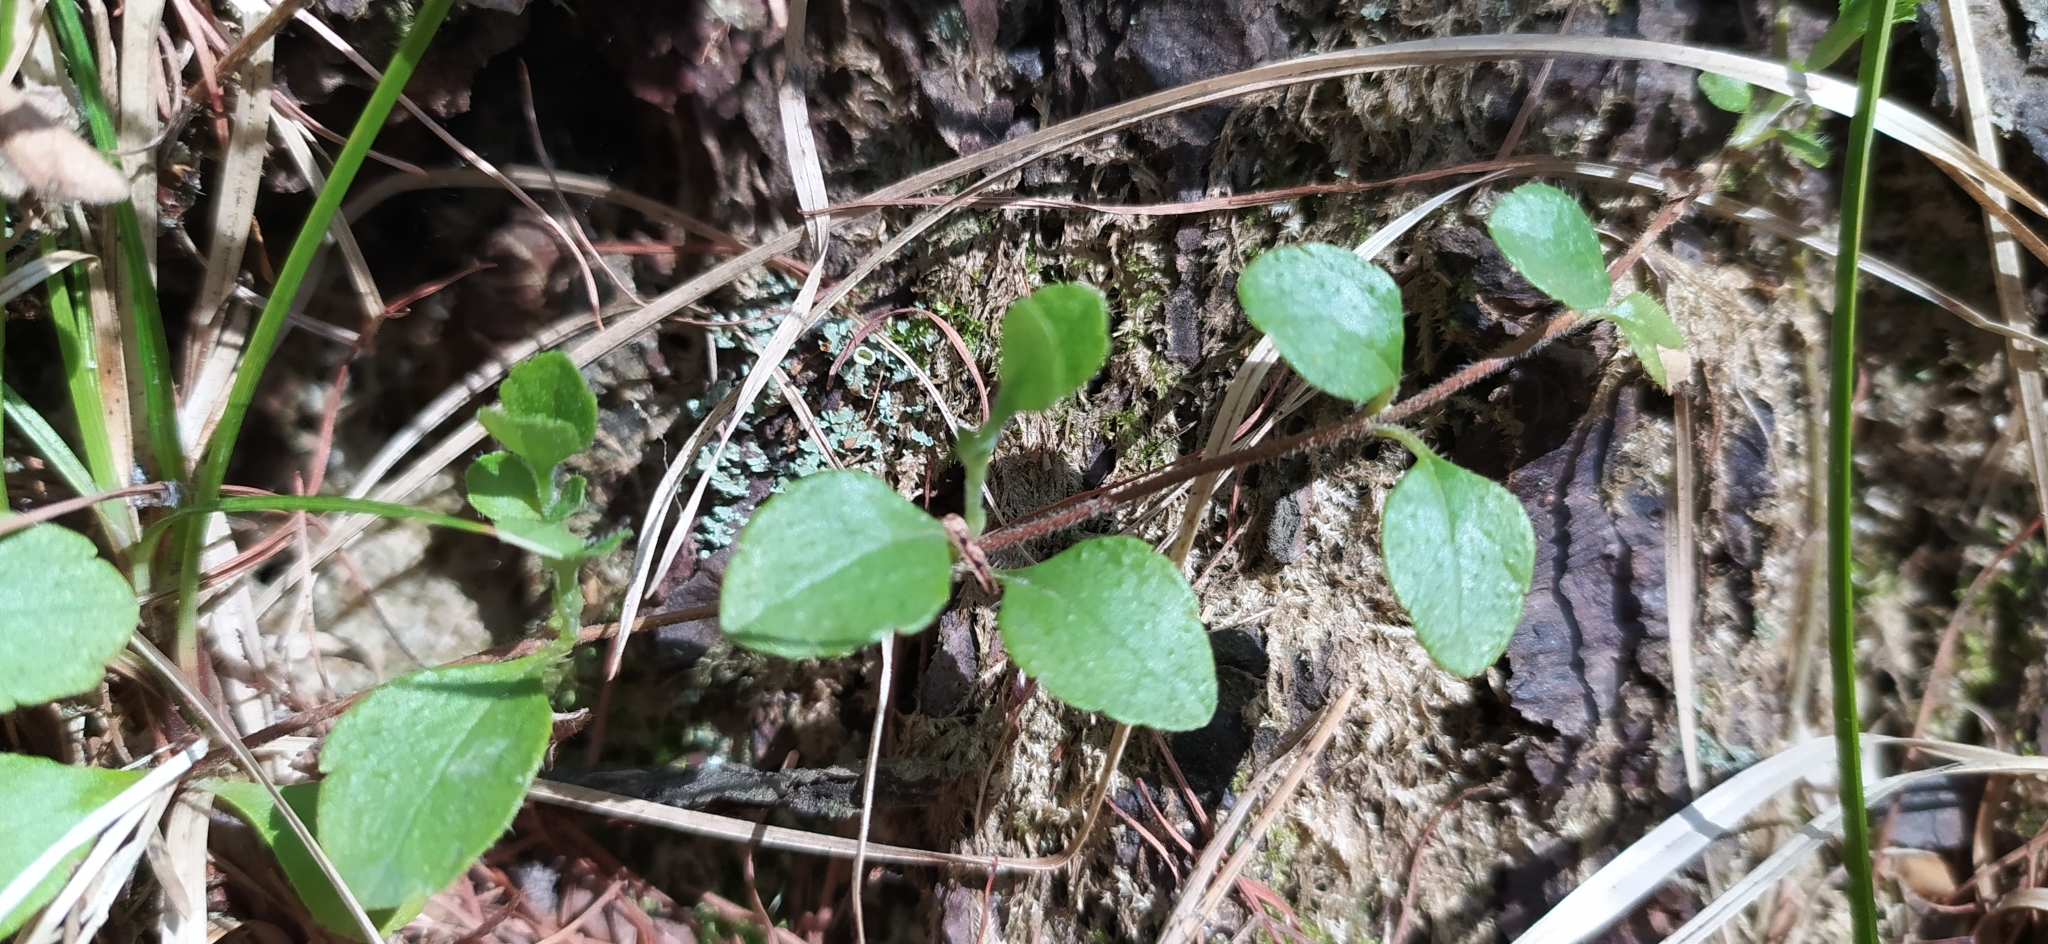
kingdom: Plantae
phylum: Tracheophyta
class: Magnoliopsida
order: Dipsacales
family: Caprifoliaceae
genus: Linnaea
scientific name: Linnaea borealis
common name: Twinflower
